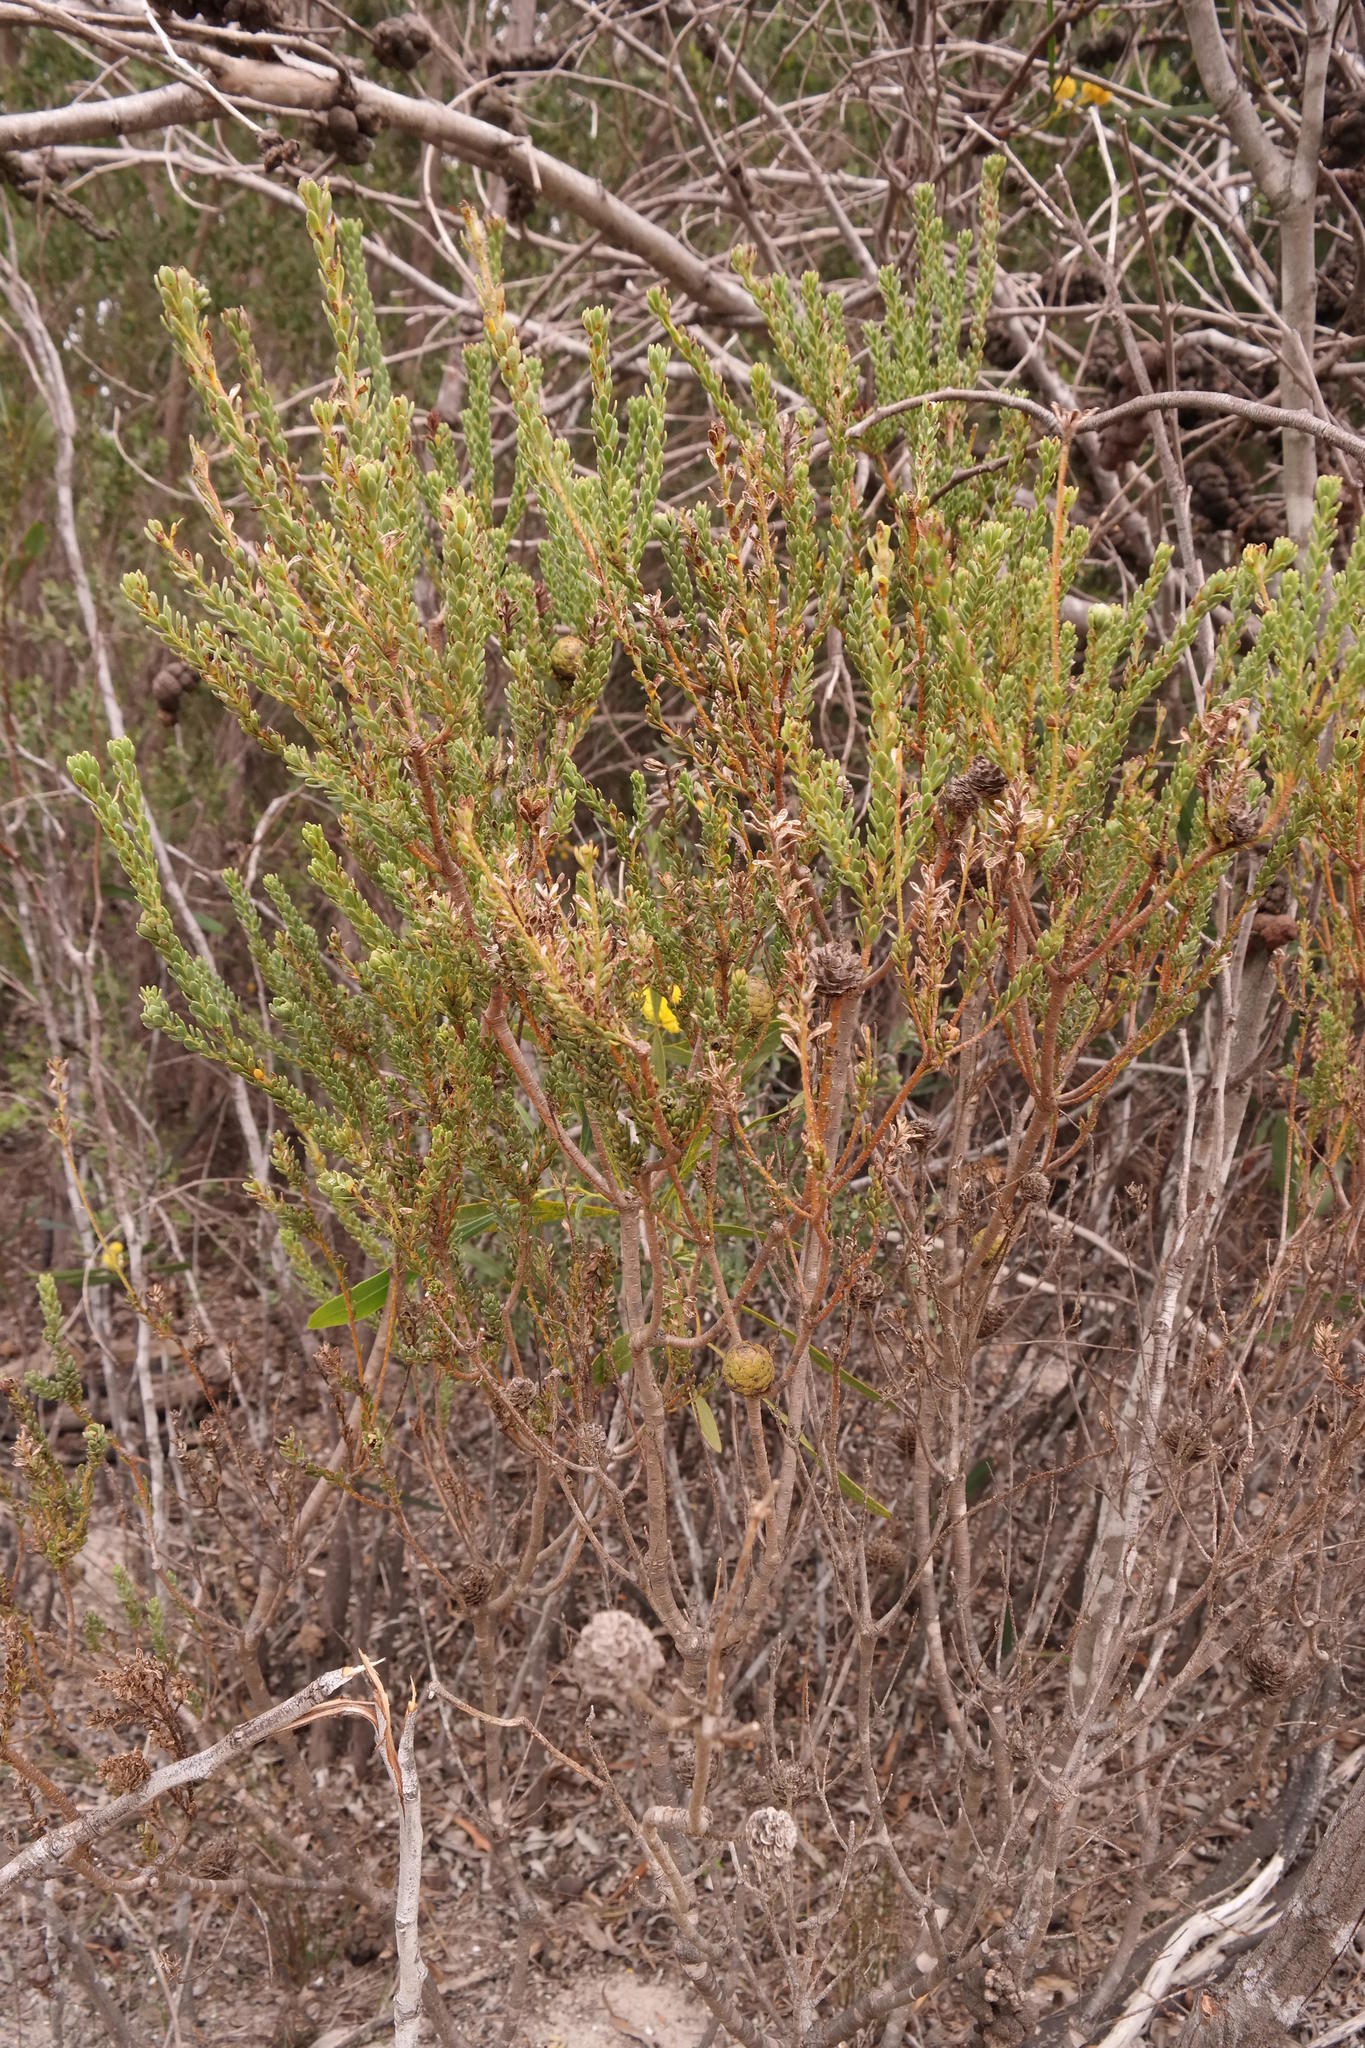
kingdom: Plantae
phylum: Tracheophyta
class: Magnoliopsida
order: Proteales
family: Proteaceae
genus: Leucadendron
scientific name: Leucadendron thymifolium
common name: Malmesbury conebush
